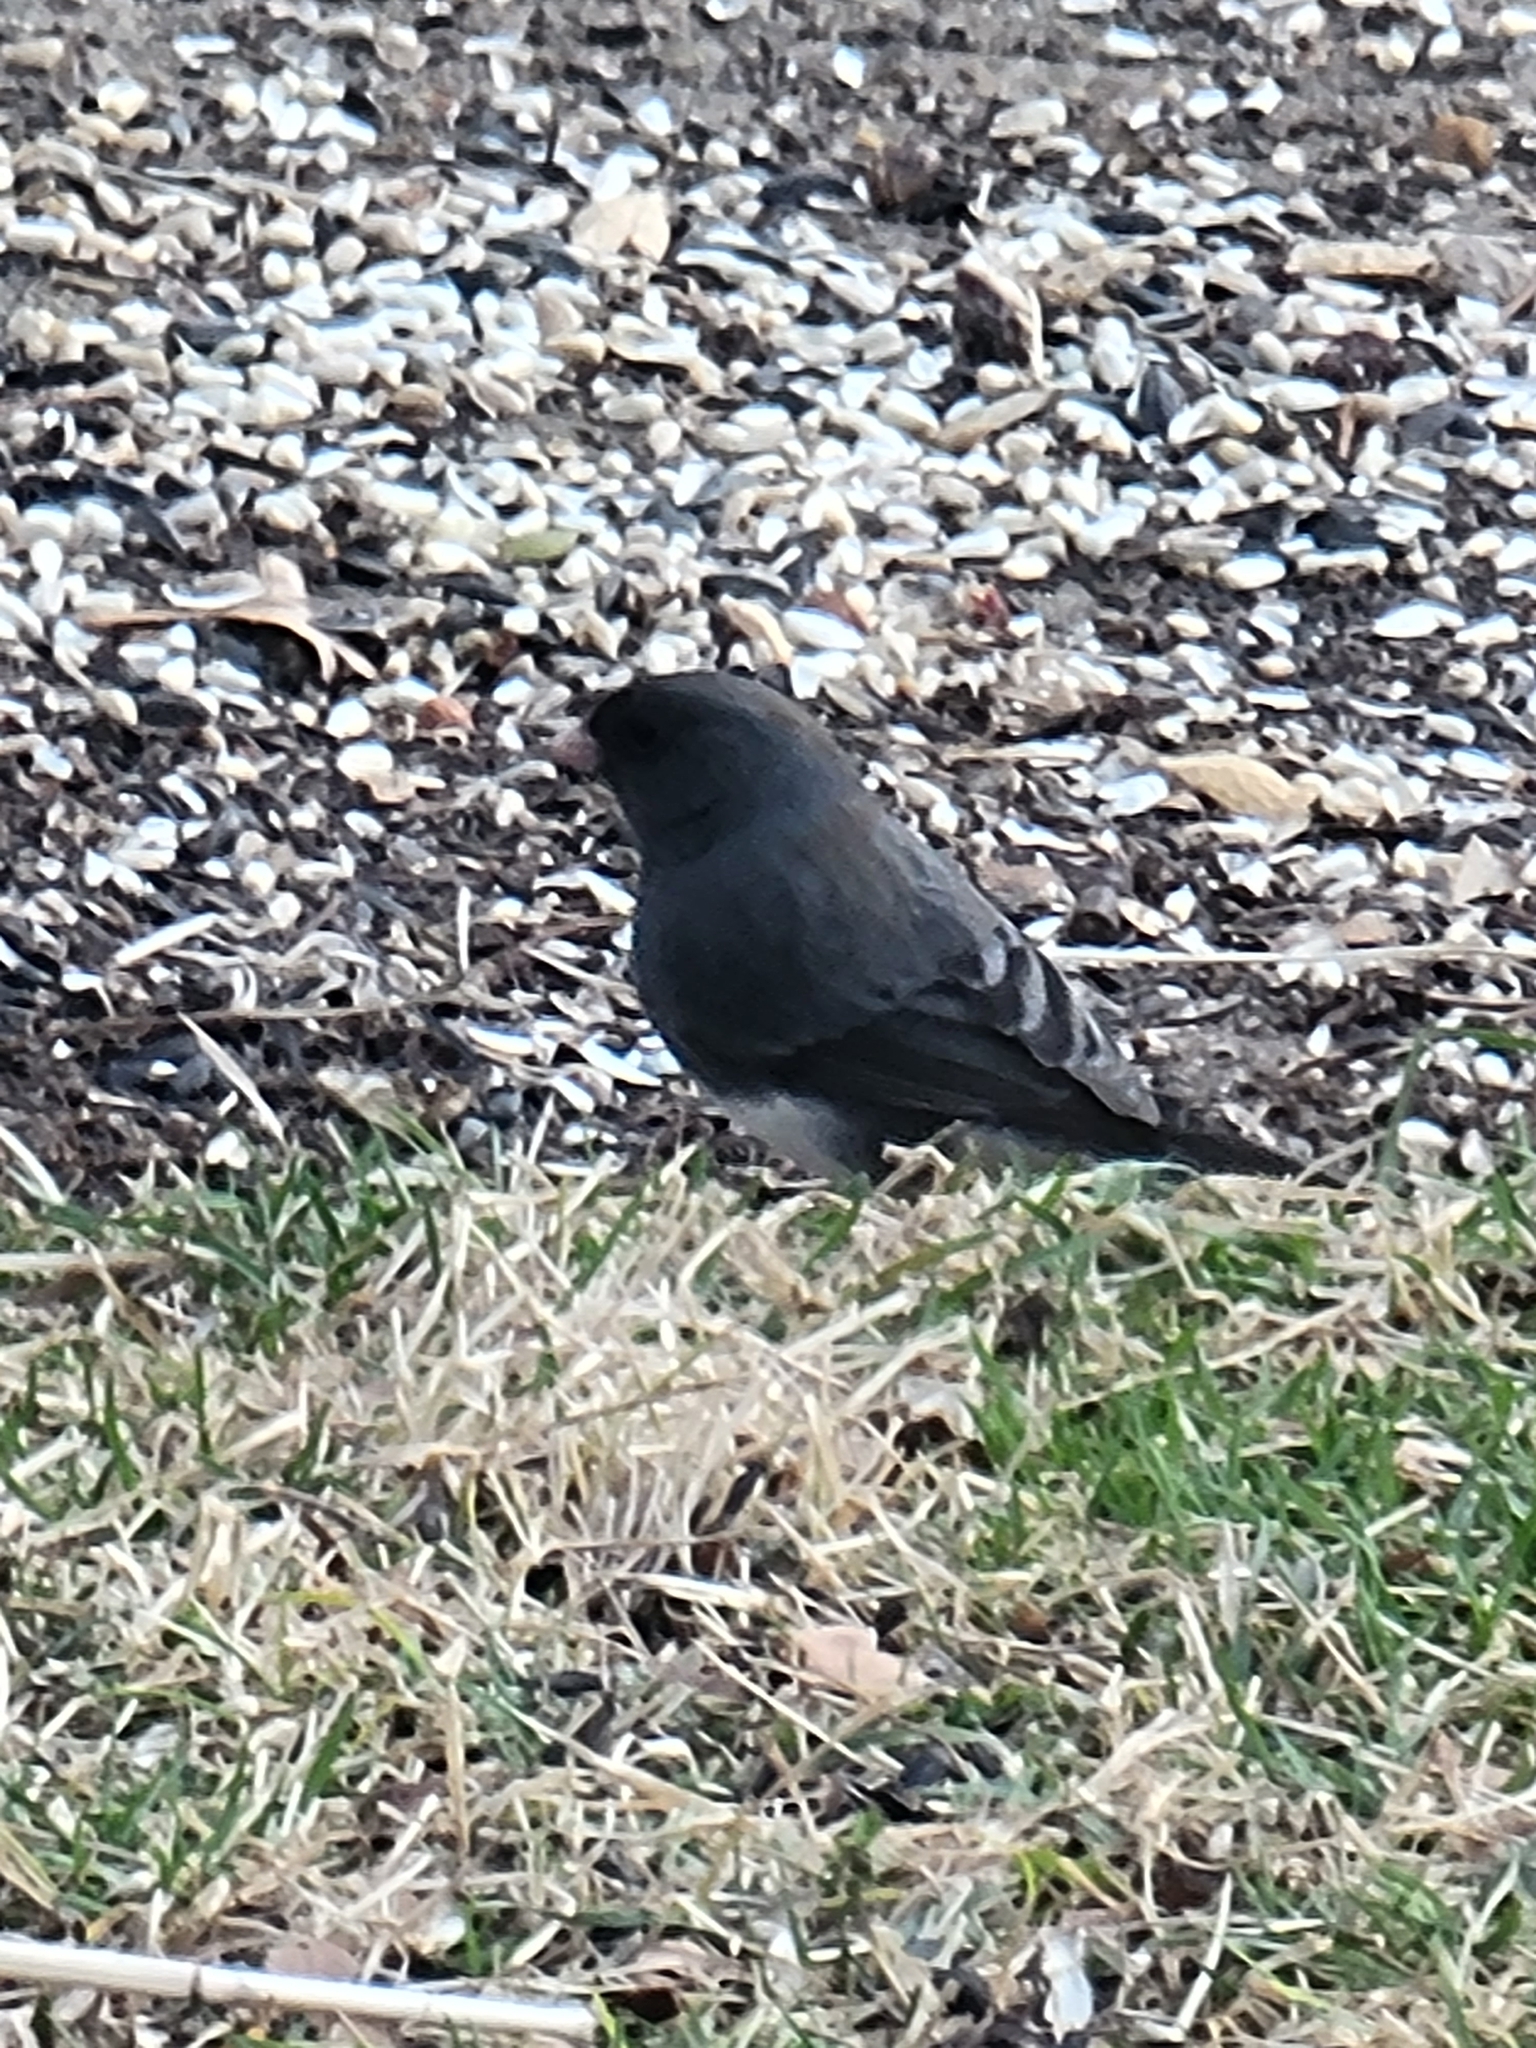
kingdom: Animalia
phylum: Chordata
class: Aves
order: Passeriformes
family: Passerellidae
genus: Junco
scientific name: Junco hyemalis
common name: Dark-eyed junco
